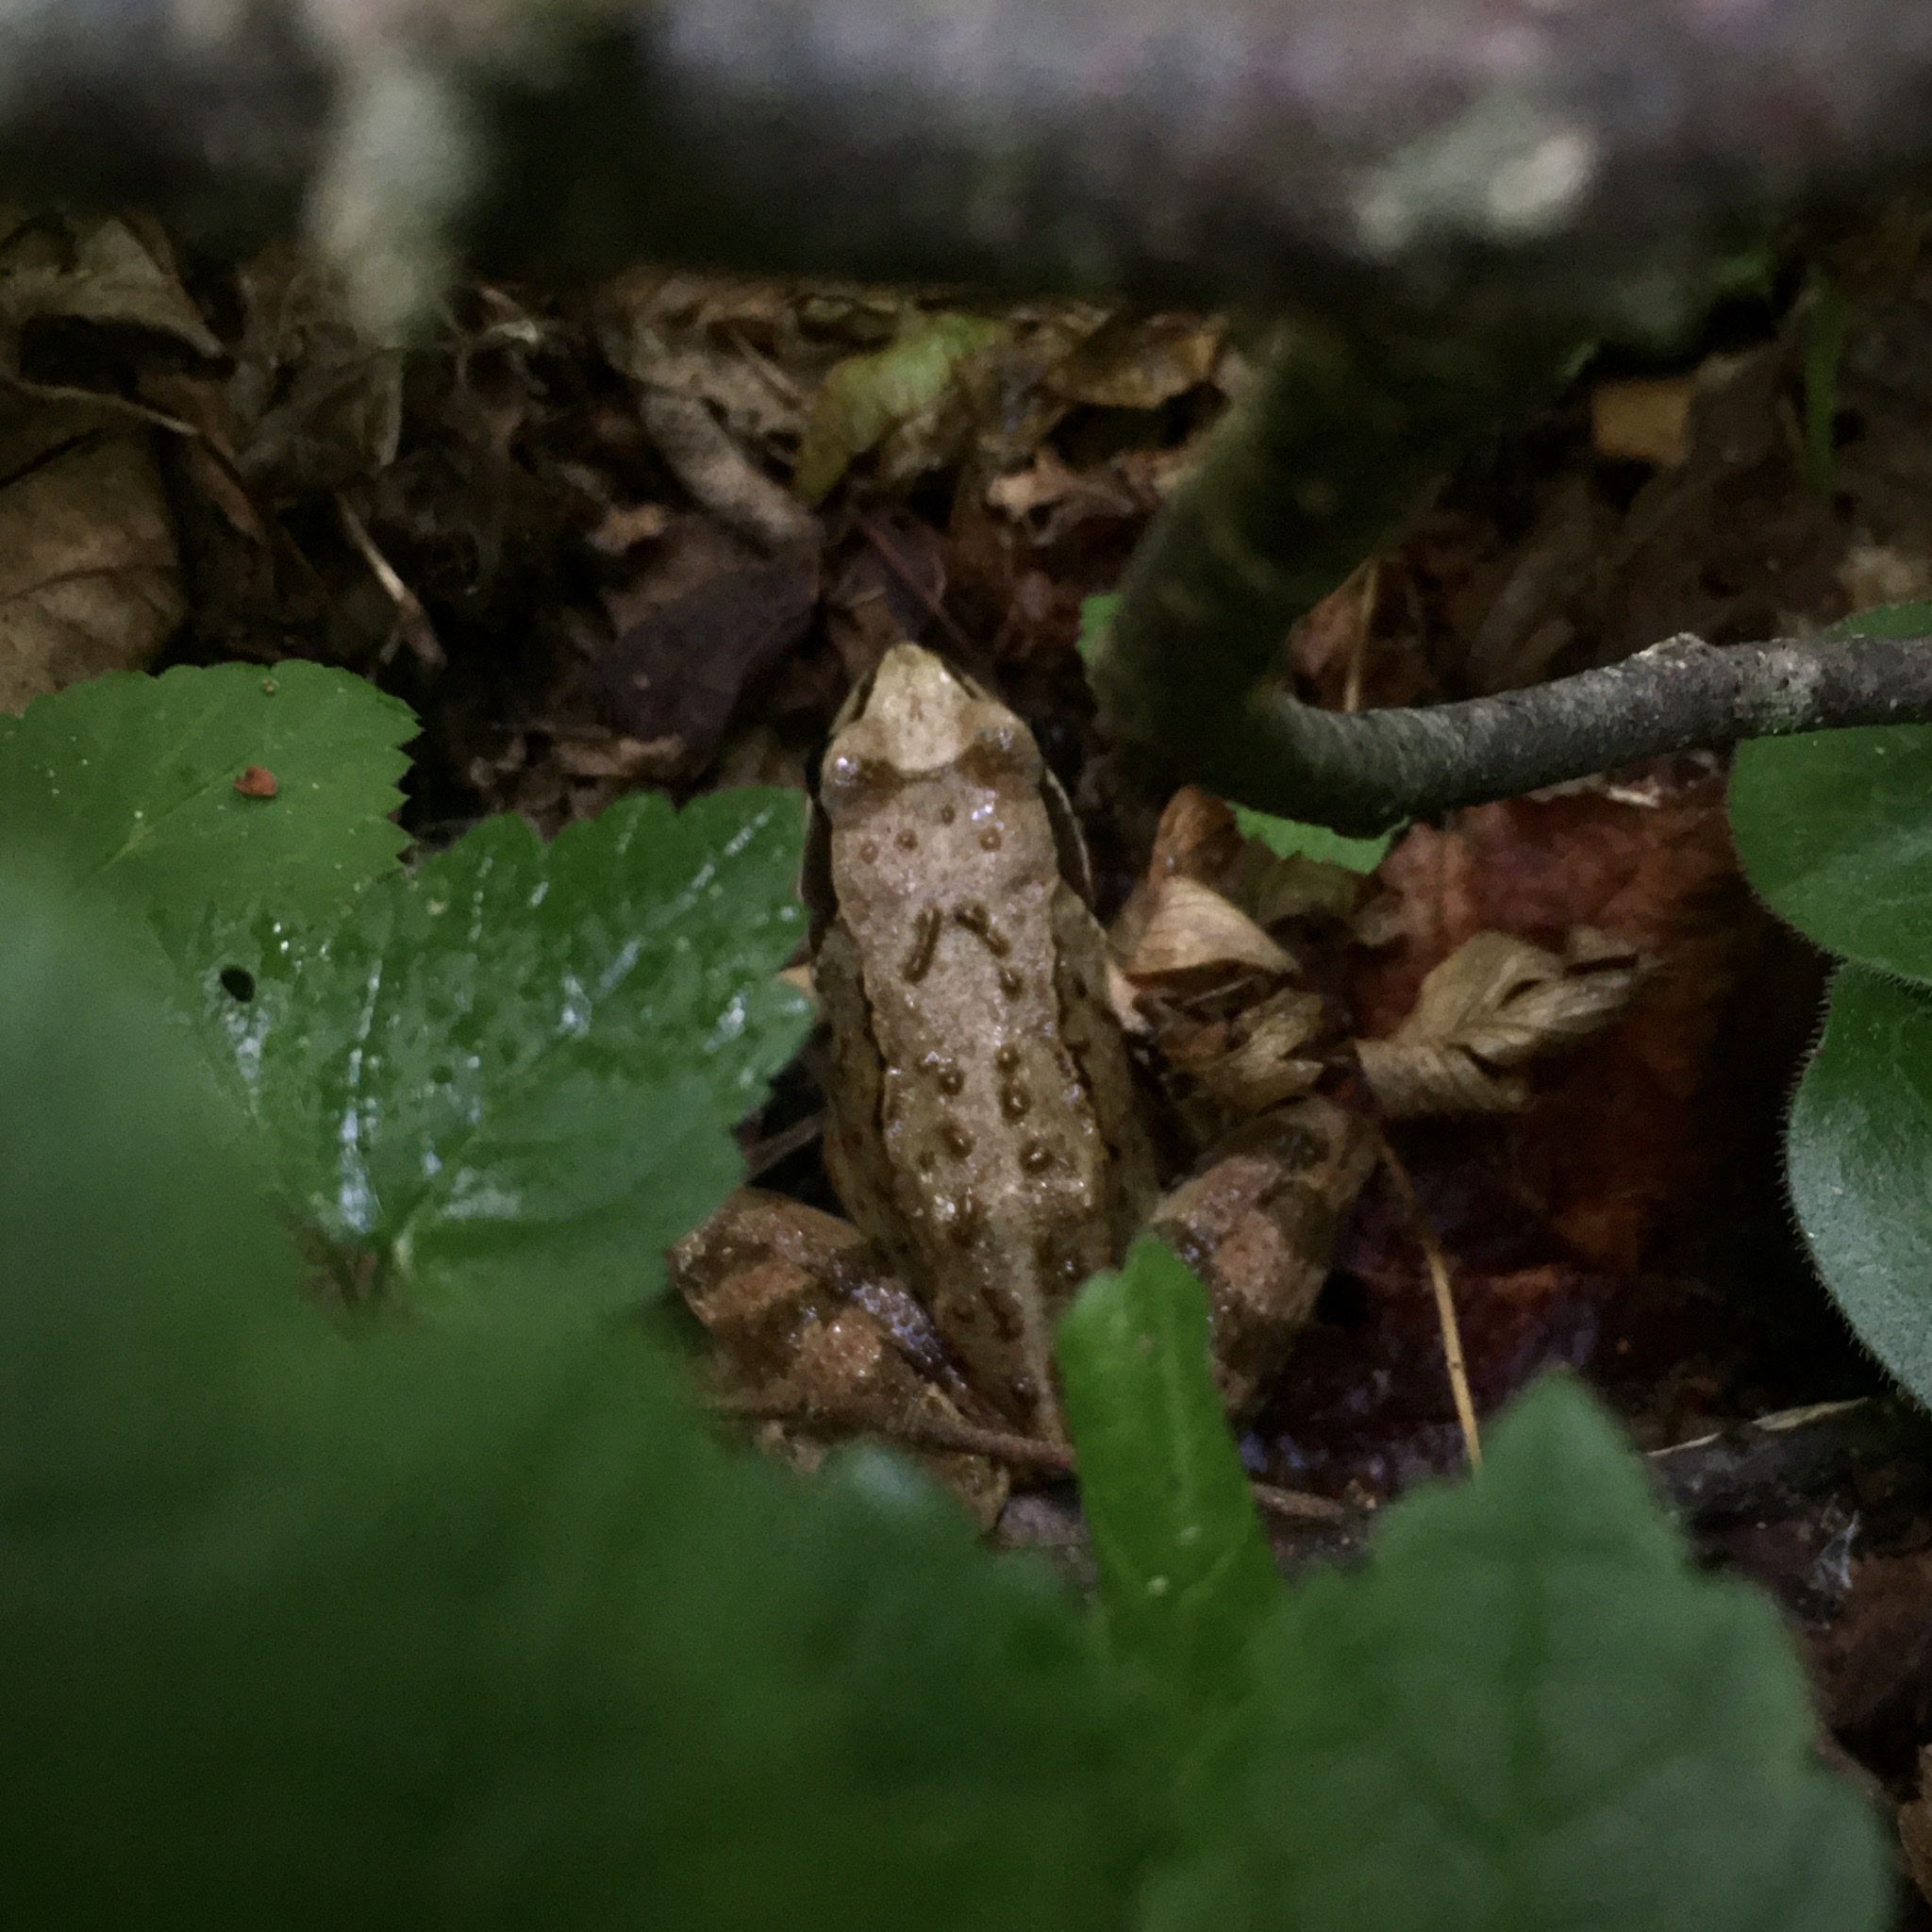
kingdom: Animalia
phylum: Chordata
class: Amphibia
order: Anura
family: Ranidae
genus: Rana
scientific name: Rana temporaria
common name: Common frog
